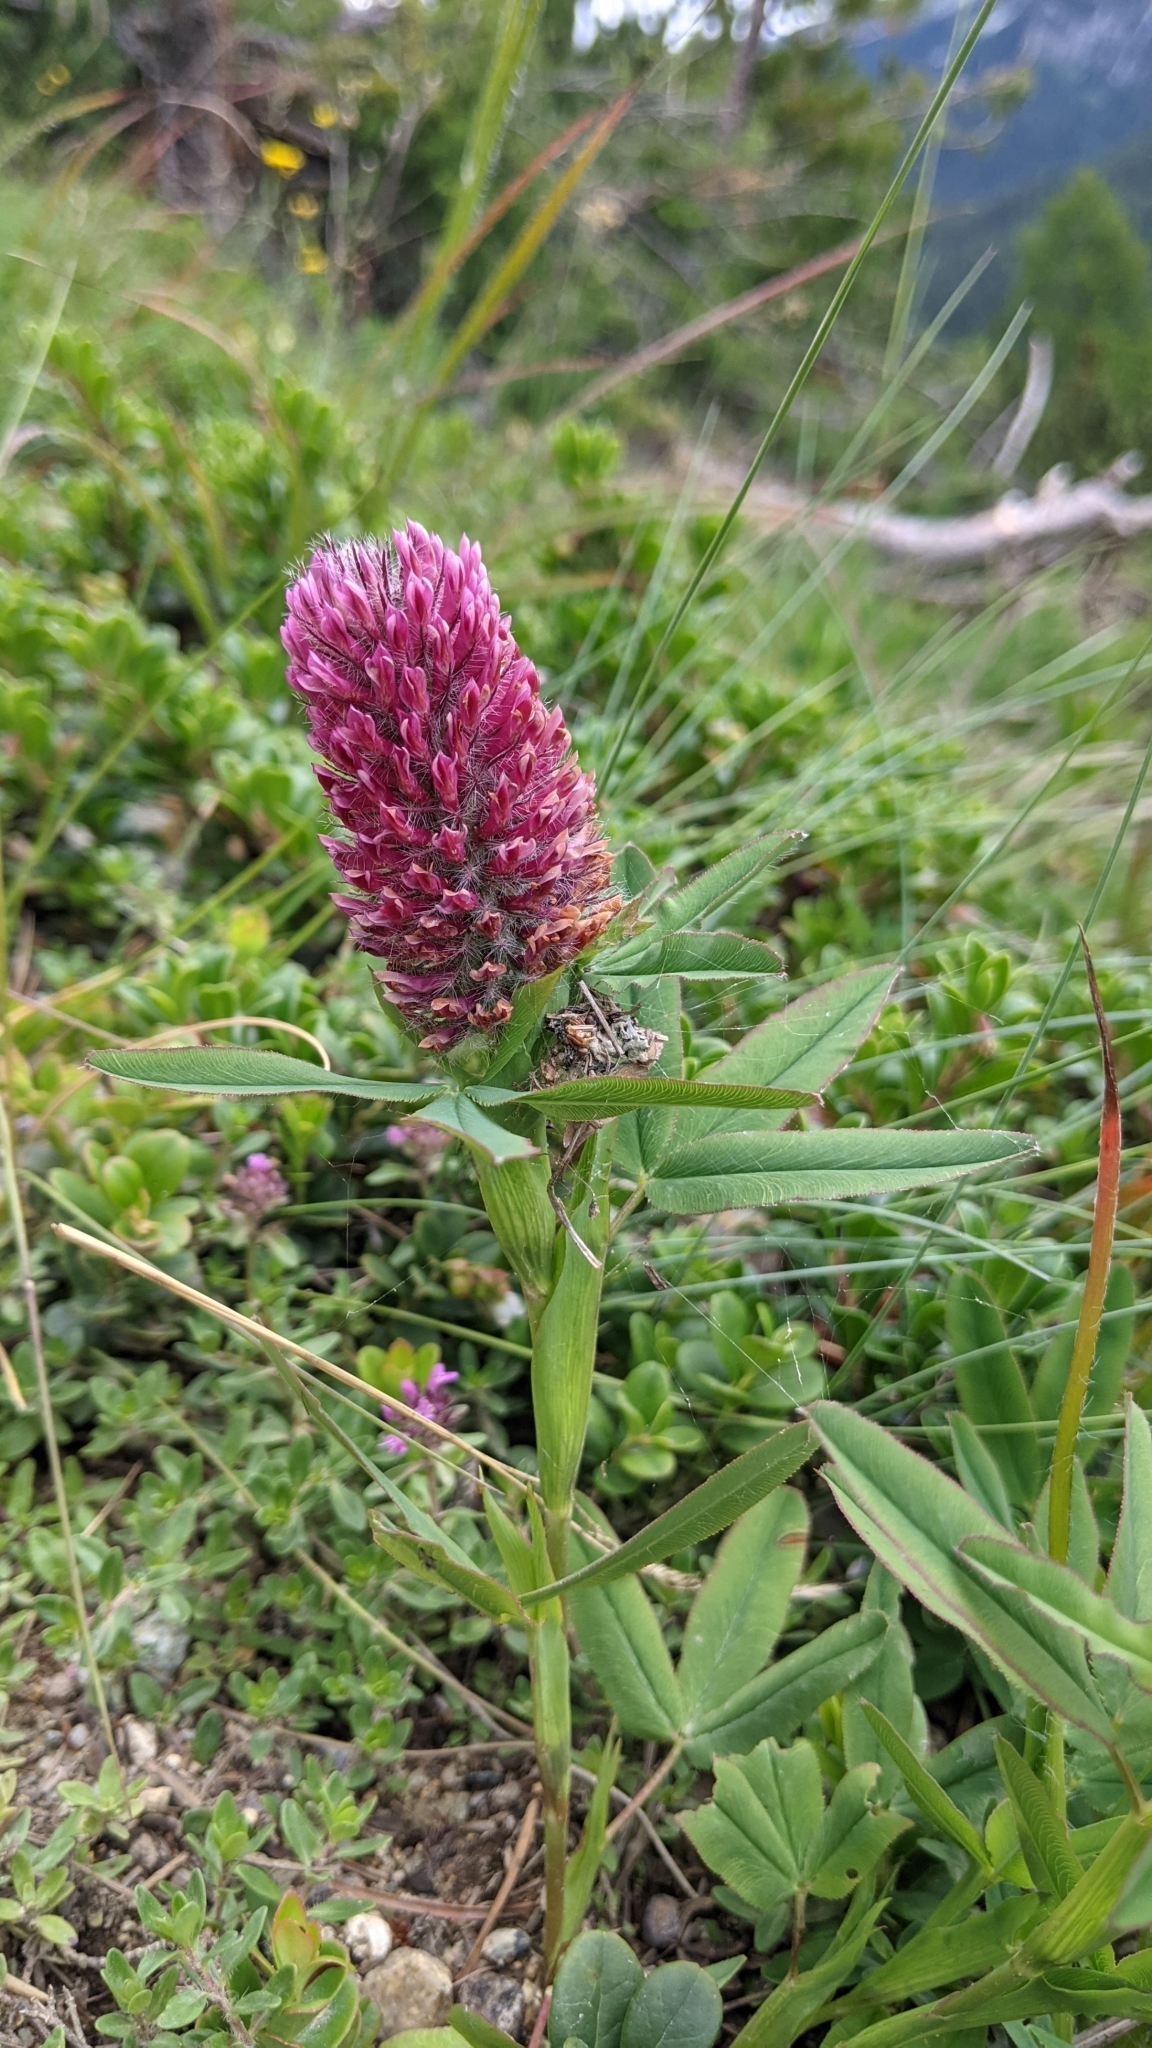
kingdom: Plantae
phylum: Tracheophyta
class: Magnoliopsida
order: Fabales
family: Fabaceae
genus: Trifolium
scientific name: Trifolium rubens
